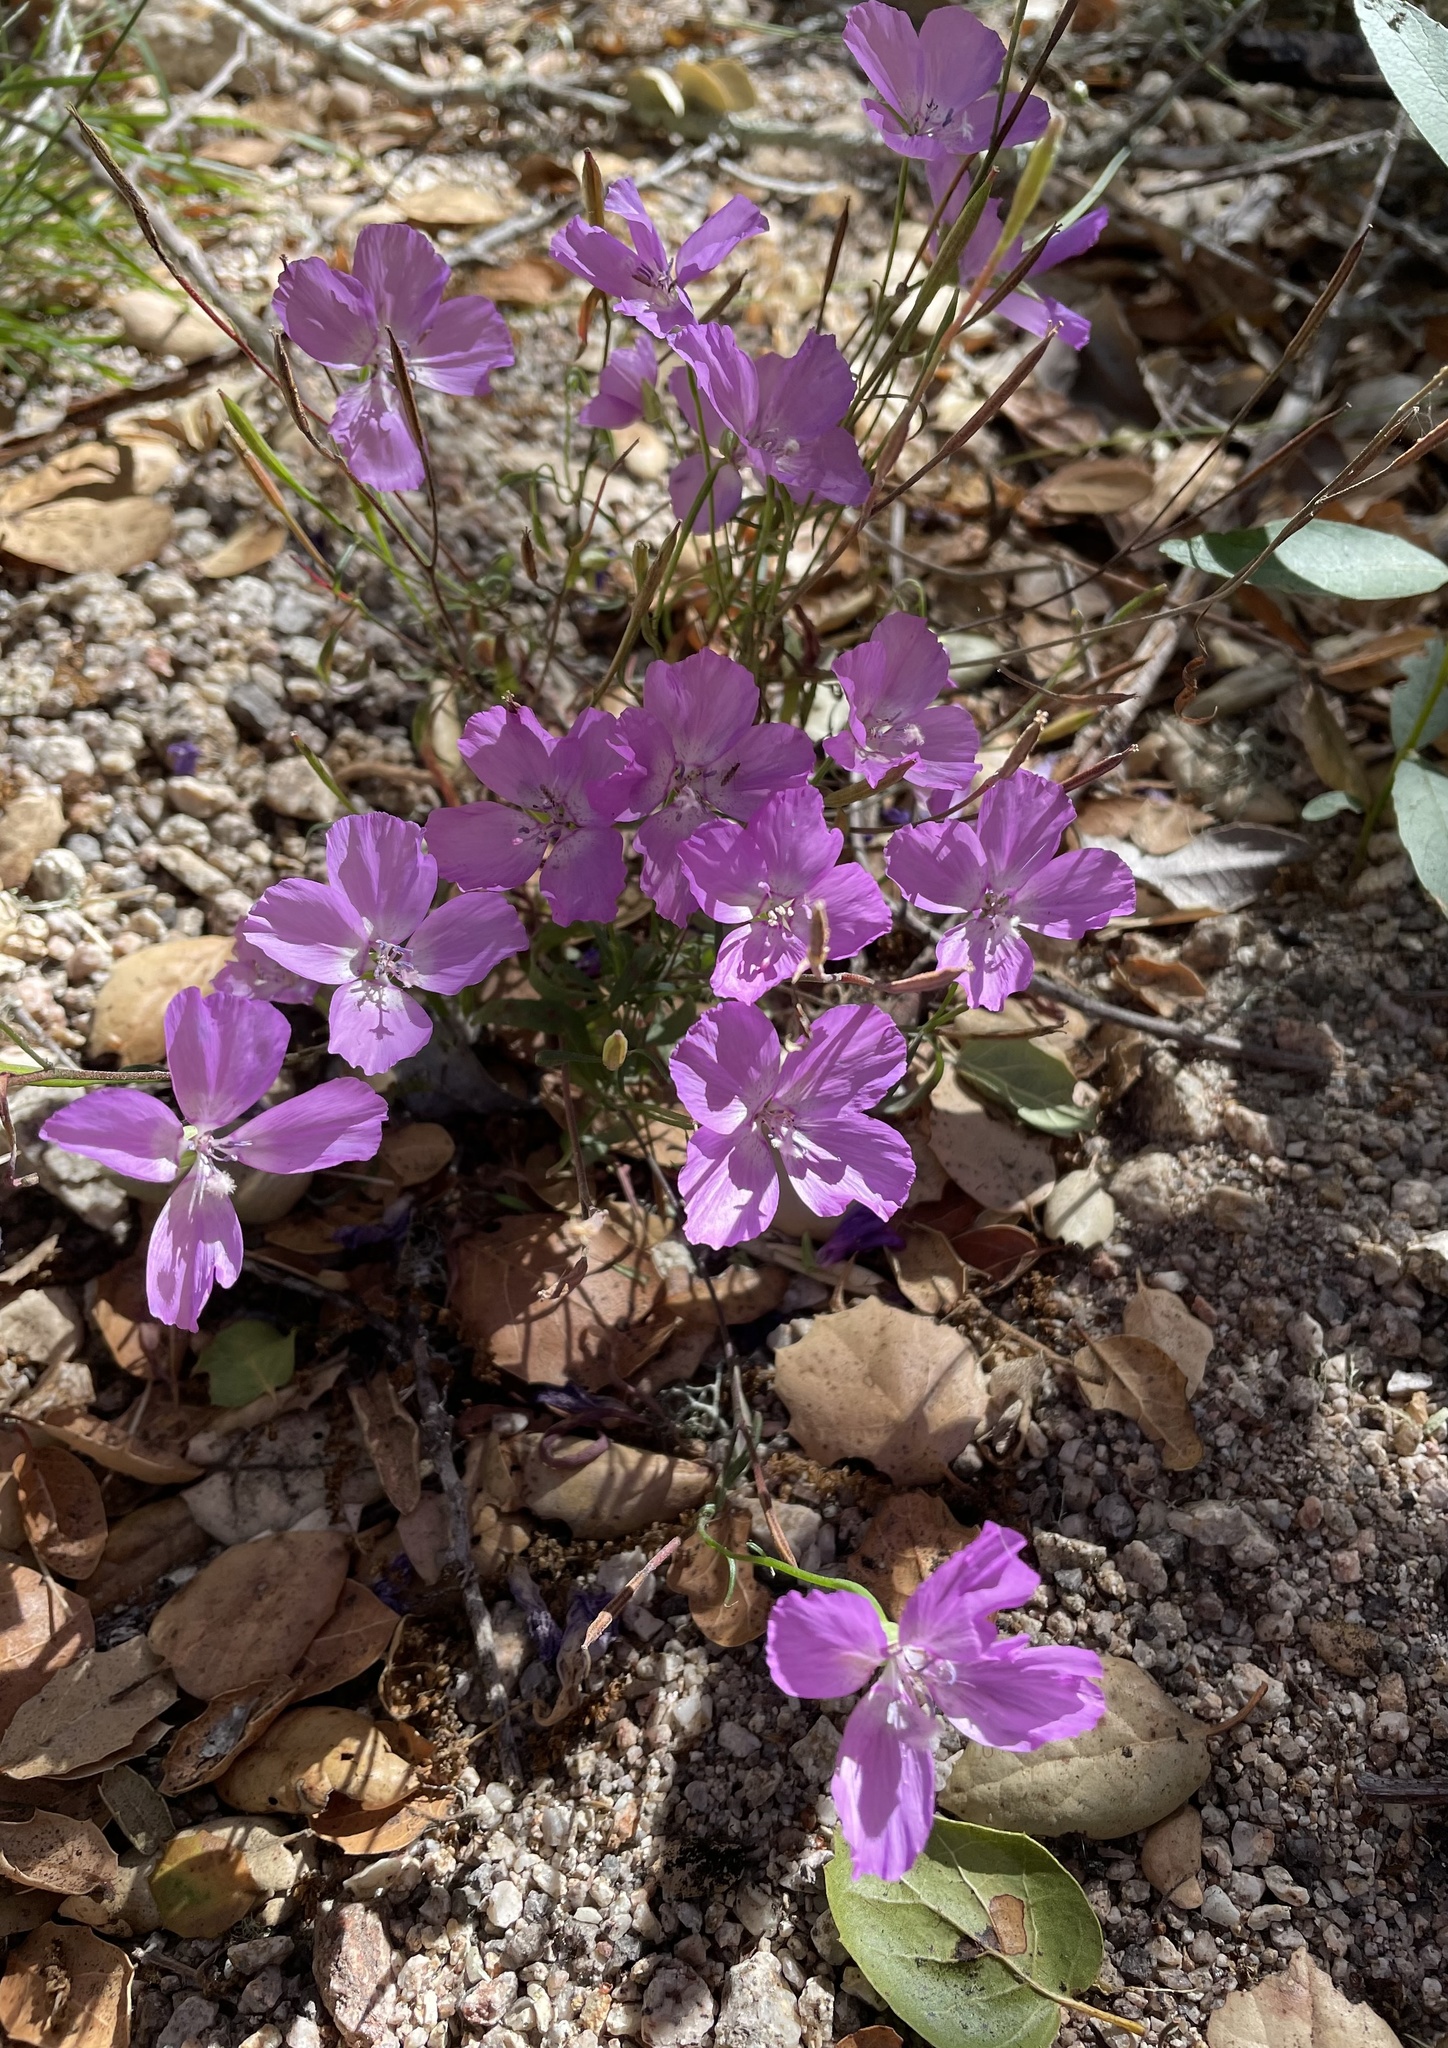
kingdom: Plantae
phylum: Tracheophyta
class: Magnoliopsida
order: Myrtales
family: Onagraceae
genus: Clarkia
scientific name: Clarkia lewisii
